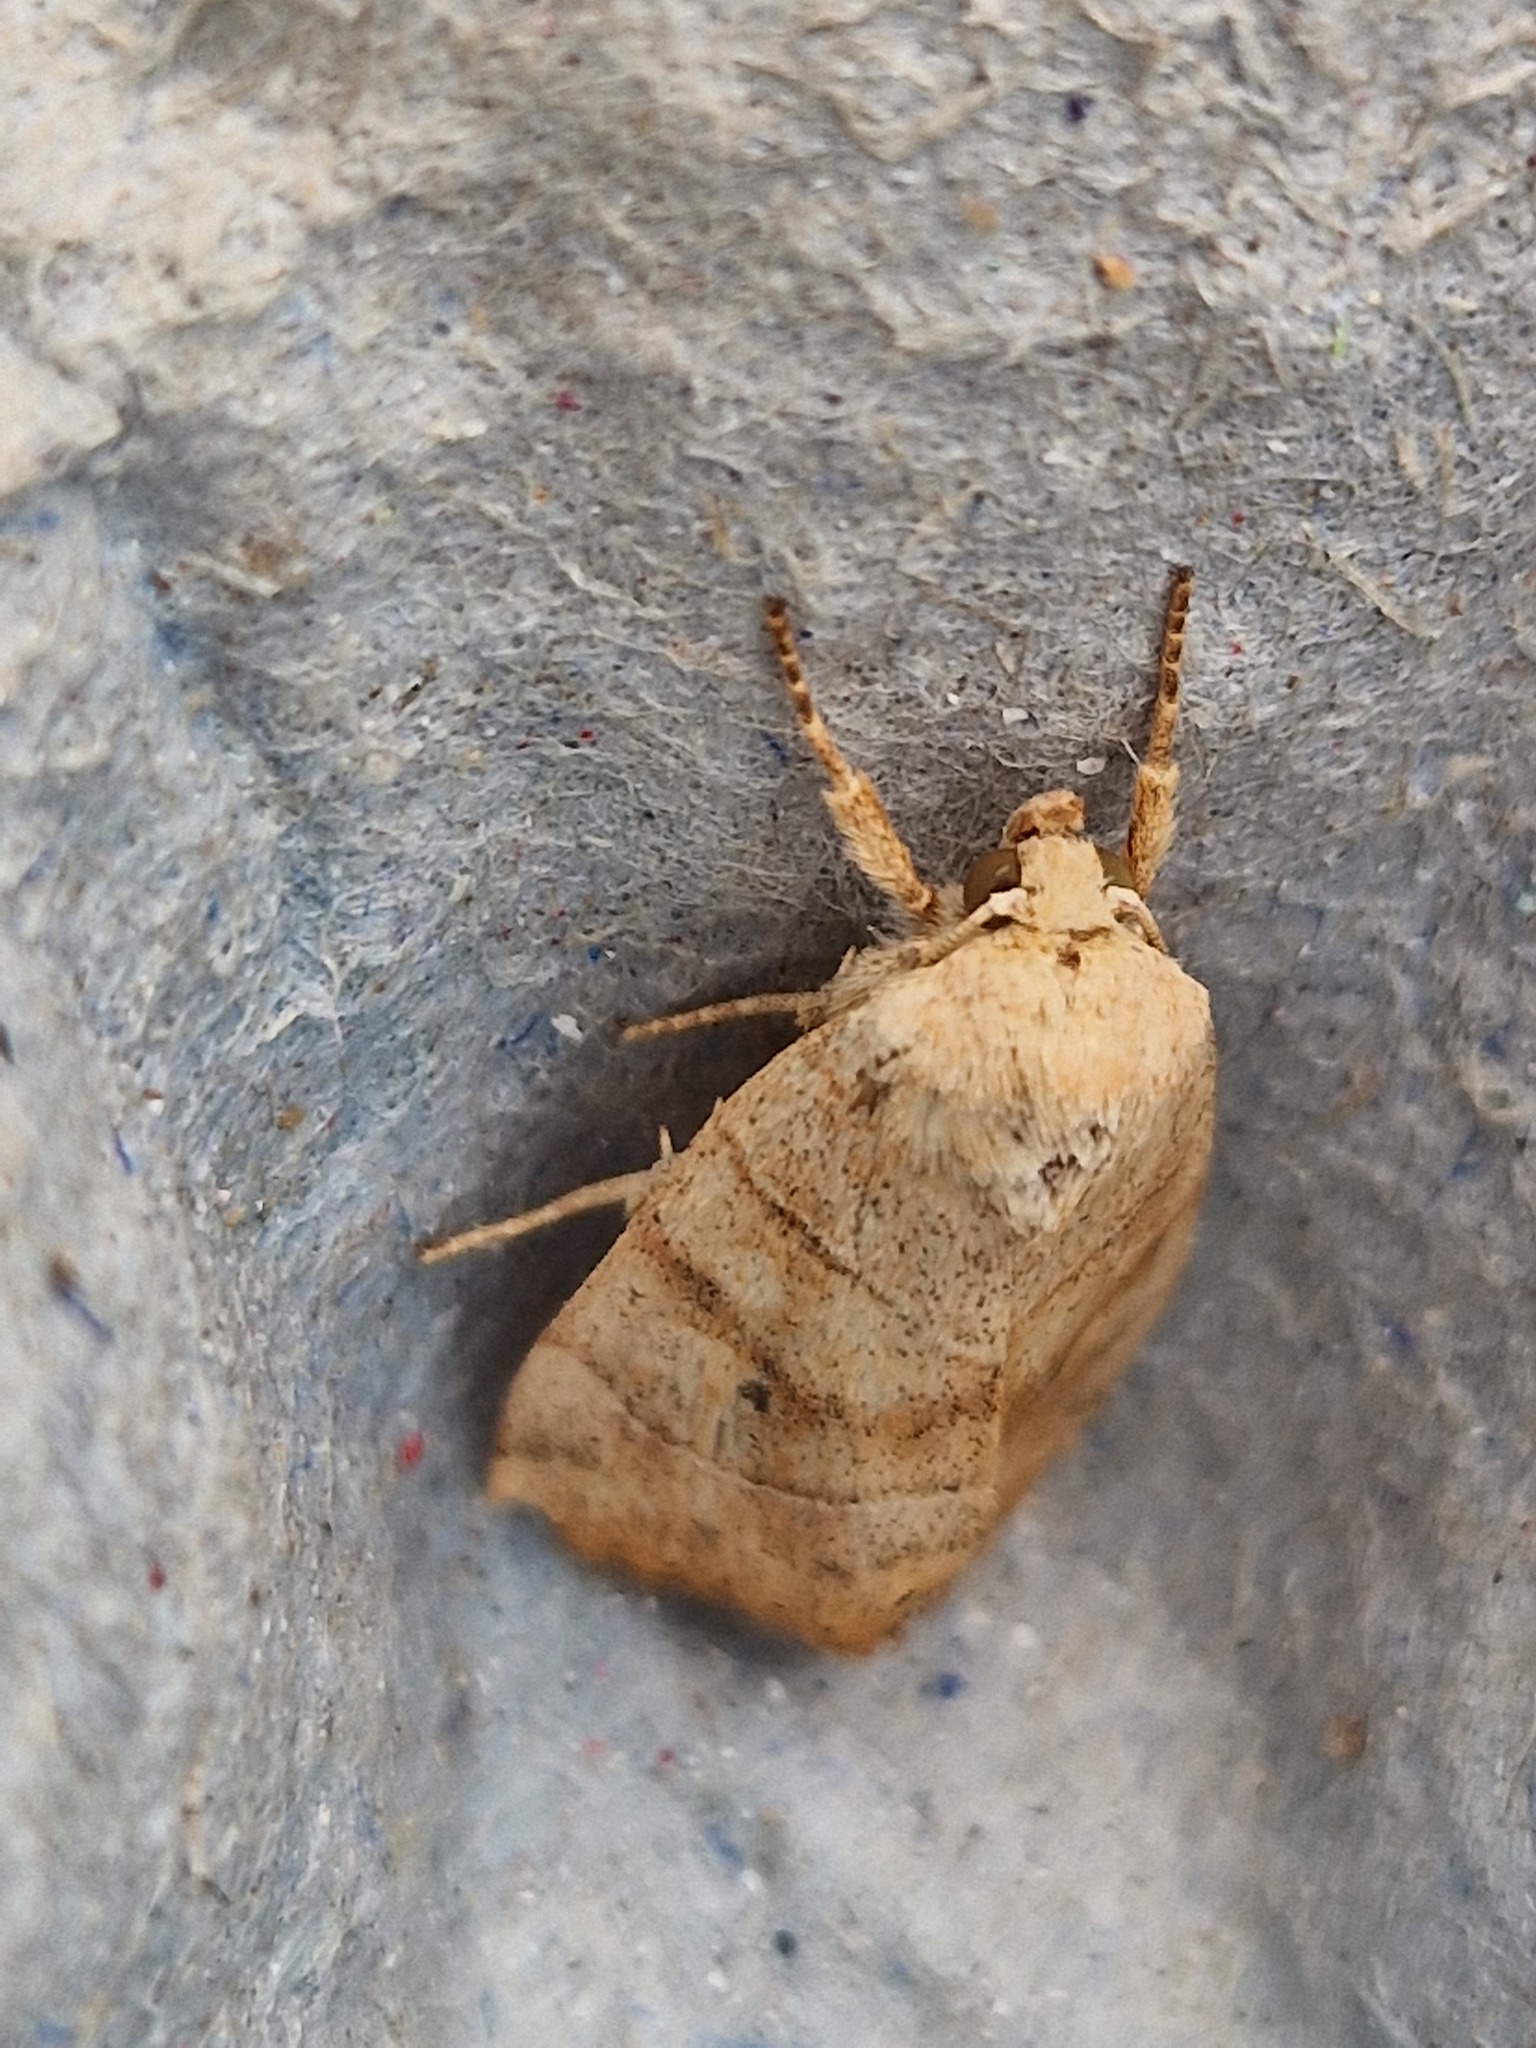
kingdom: Animalia
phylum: Arthropoda
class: Insecta
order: Lepidoptera
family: Noctuidae
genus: Cosmia
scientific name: Cosmia trapezina
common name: Dun-bar
